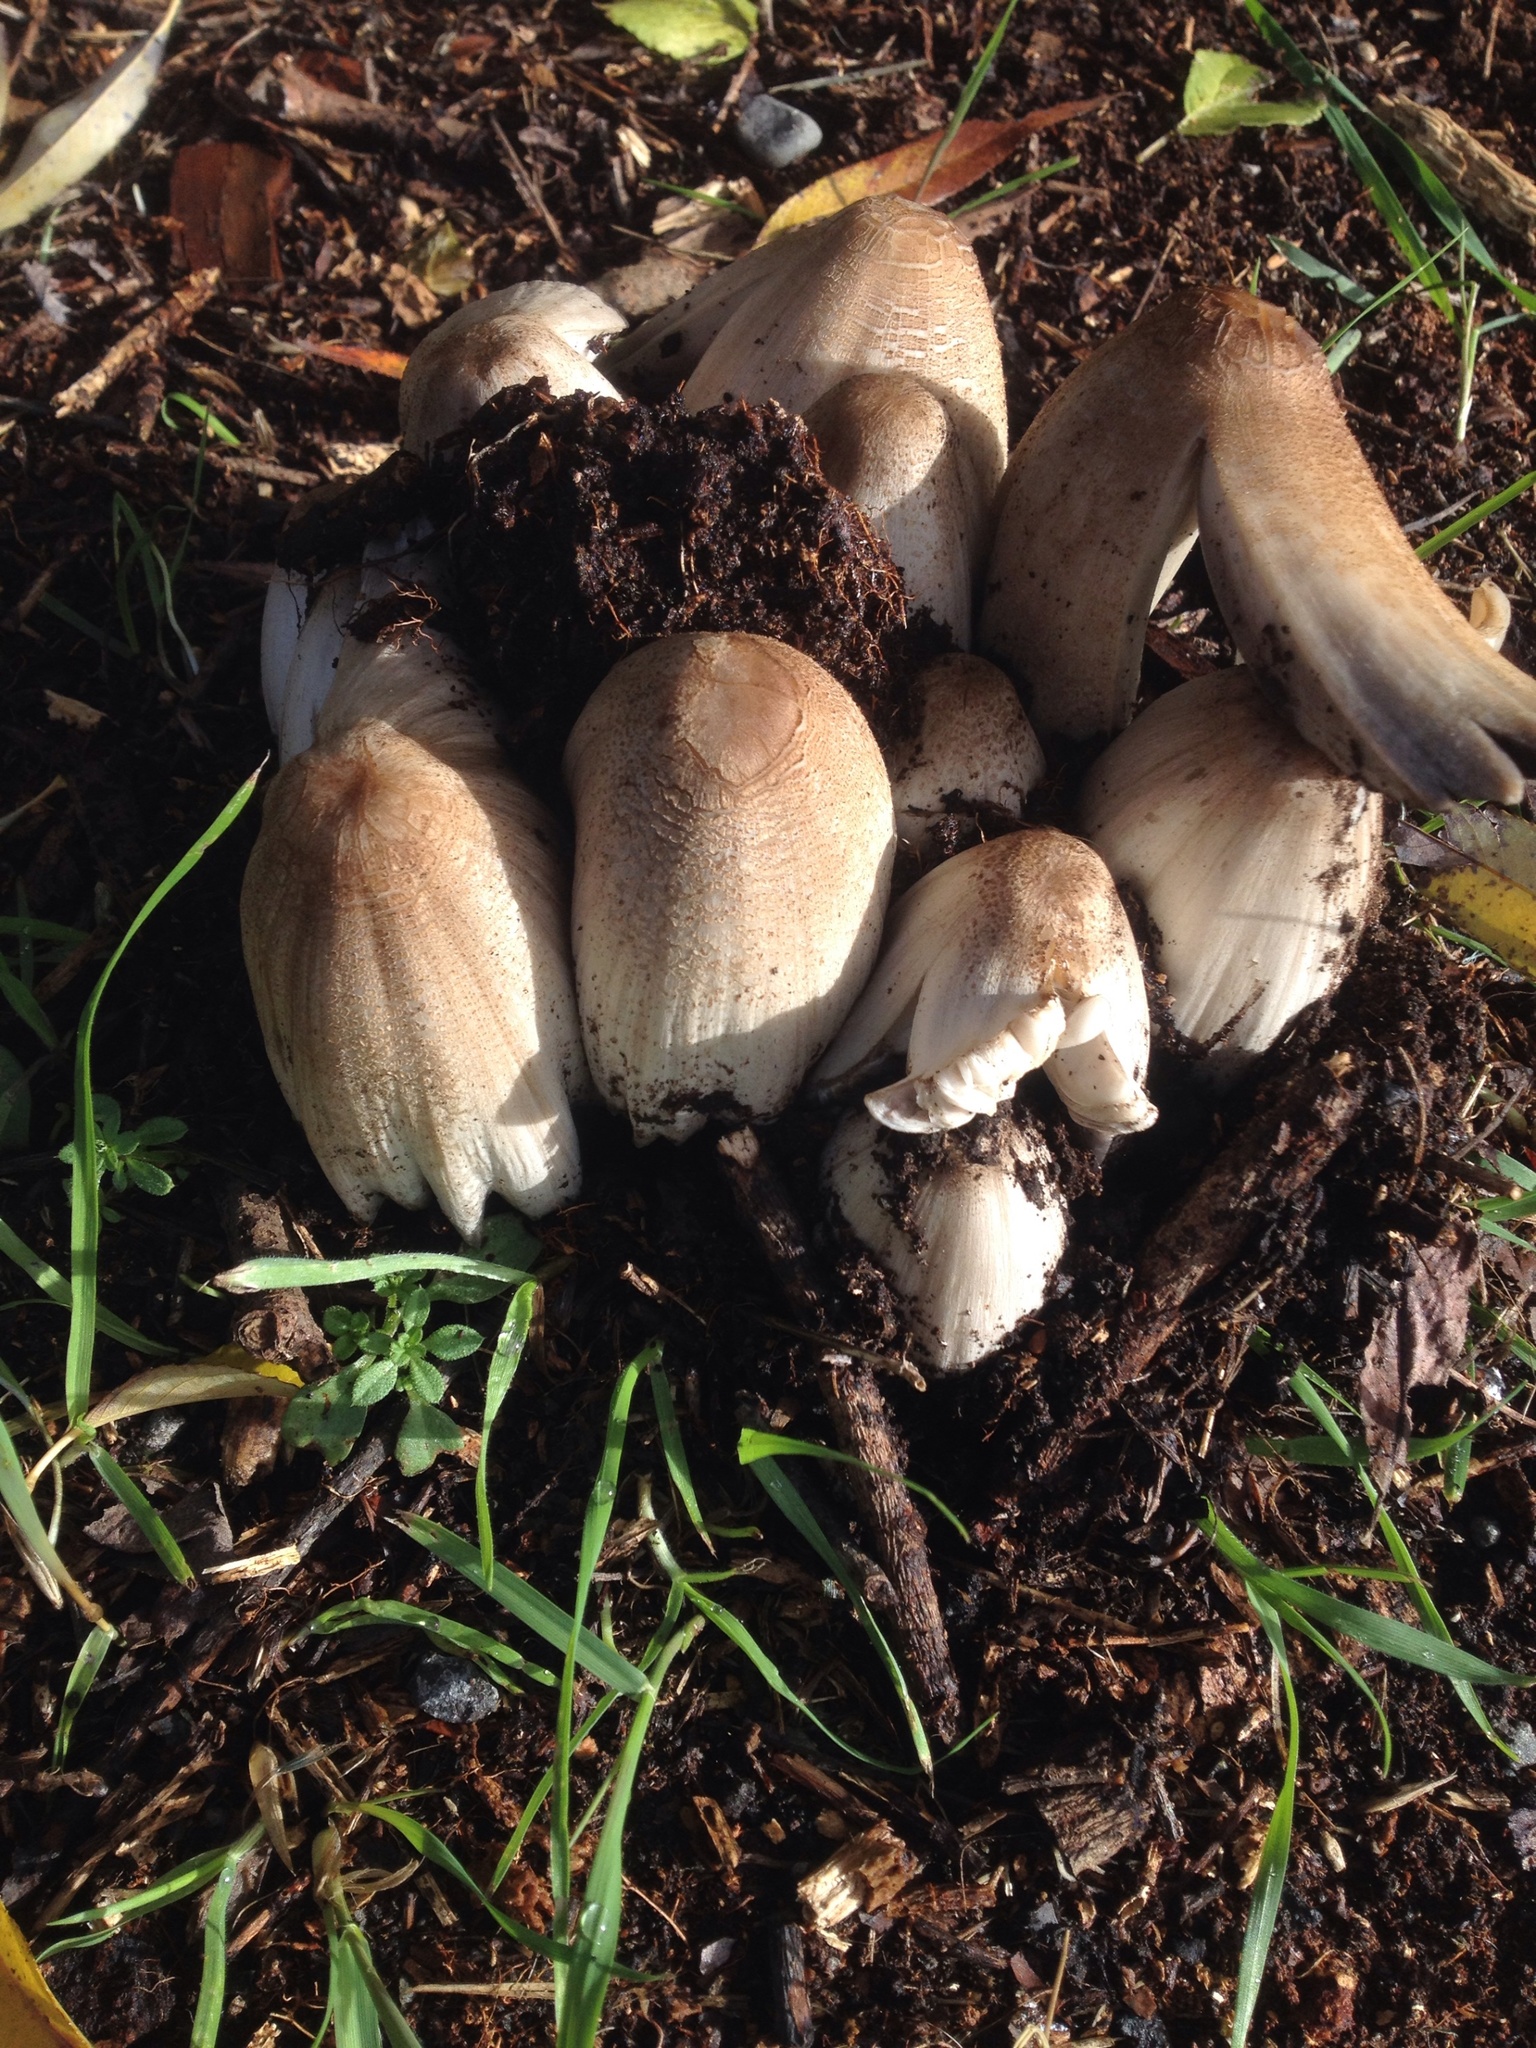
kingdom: Fungi
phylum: Basidiomycota
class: Agaricomycetes
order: Agaricales
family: Psathyrellaceae
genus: Coprinopsis
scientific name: Coprinopsis atramentaria
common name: Common ink-cap
